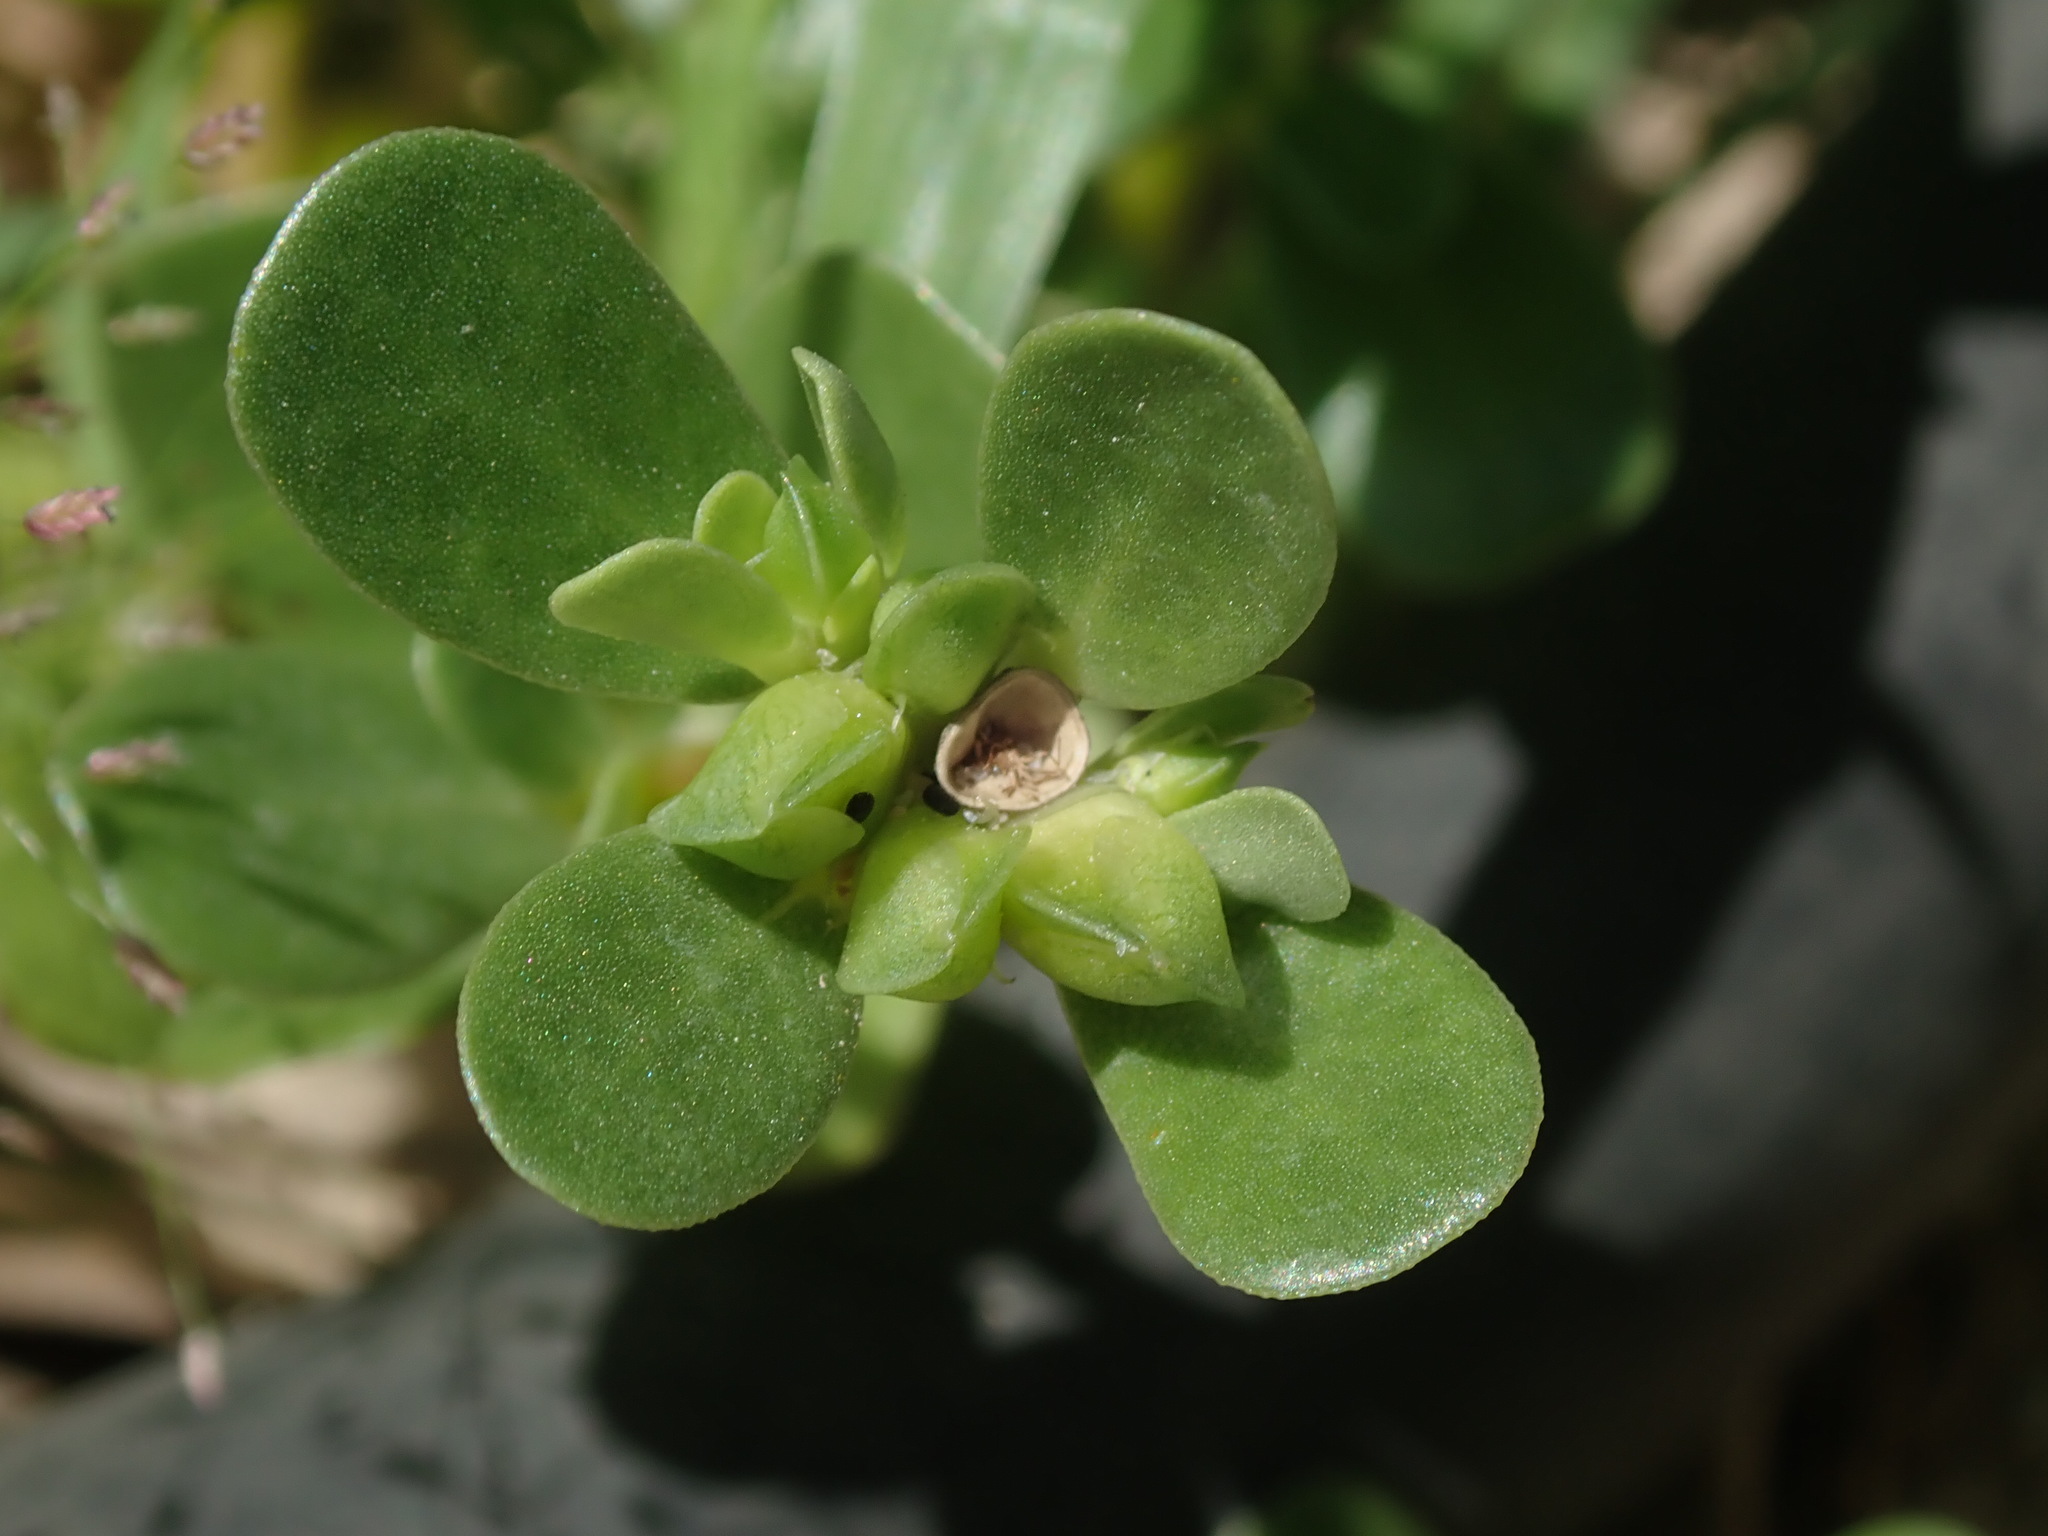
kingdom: Plantae
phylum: Tracheophyta
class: Magnoliopsida
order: Caryophyllales
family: Portulacaceae
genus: Portulaca
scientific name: Portulaca oleracea
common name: Common purslane
